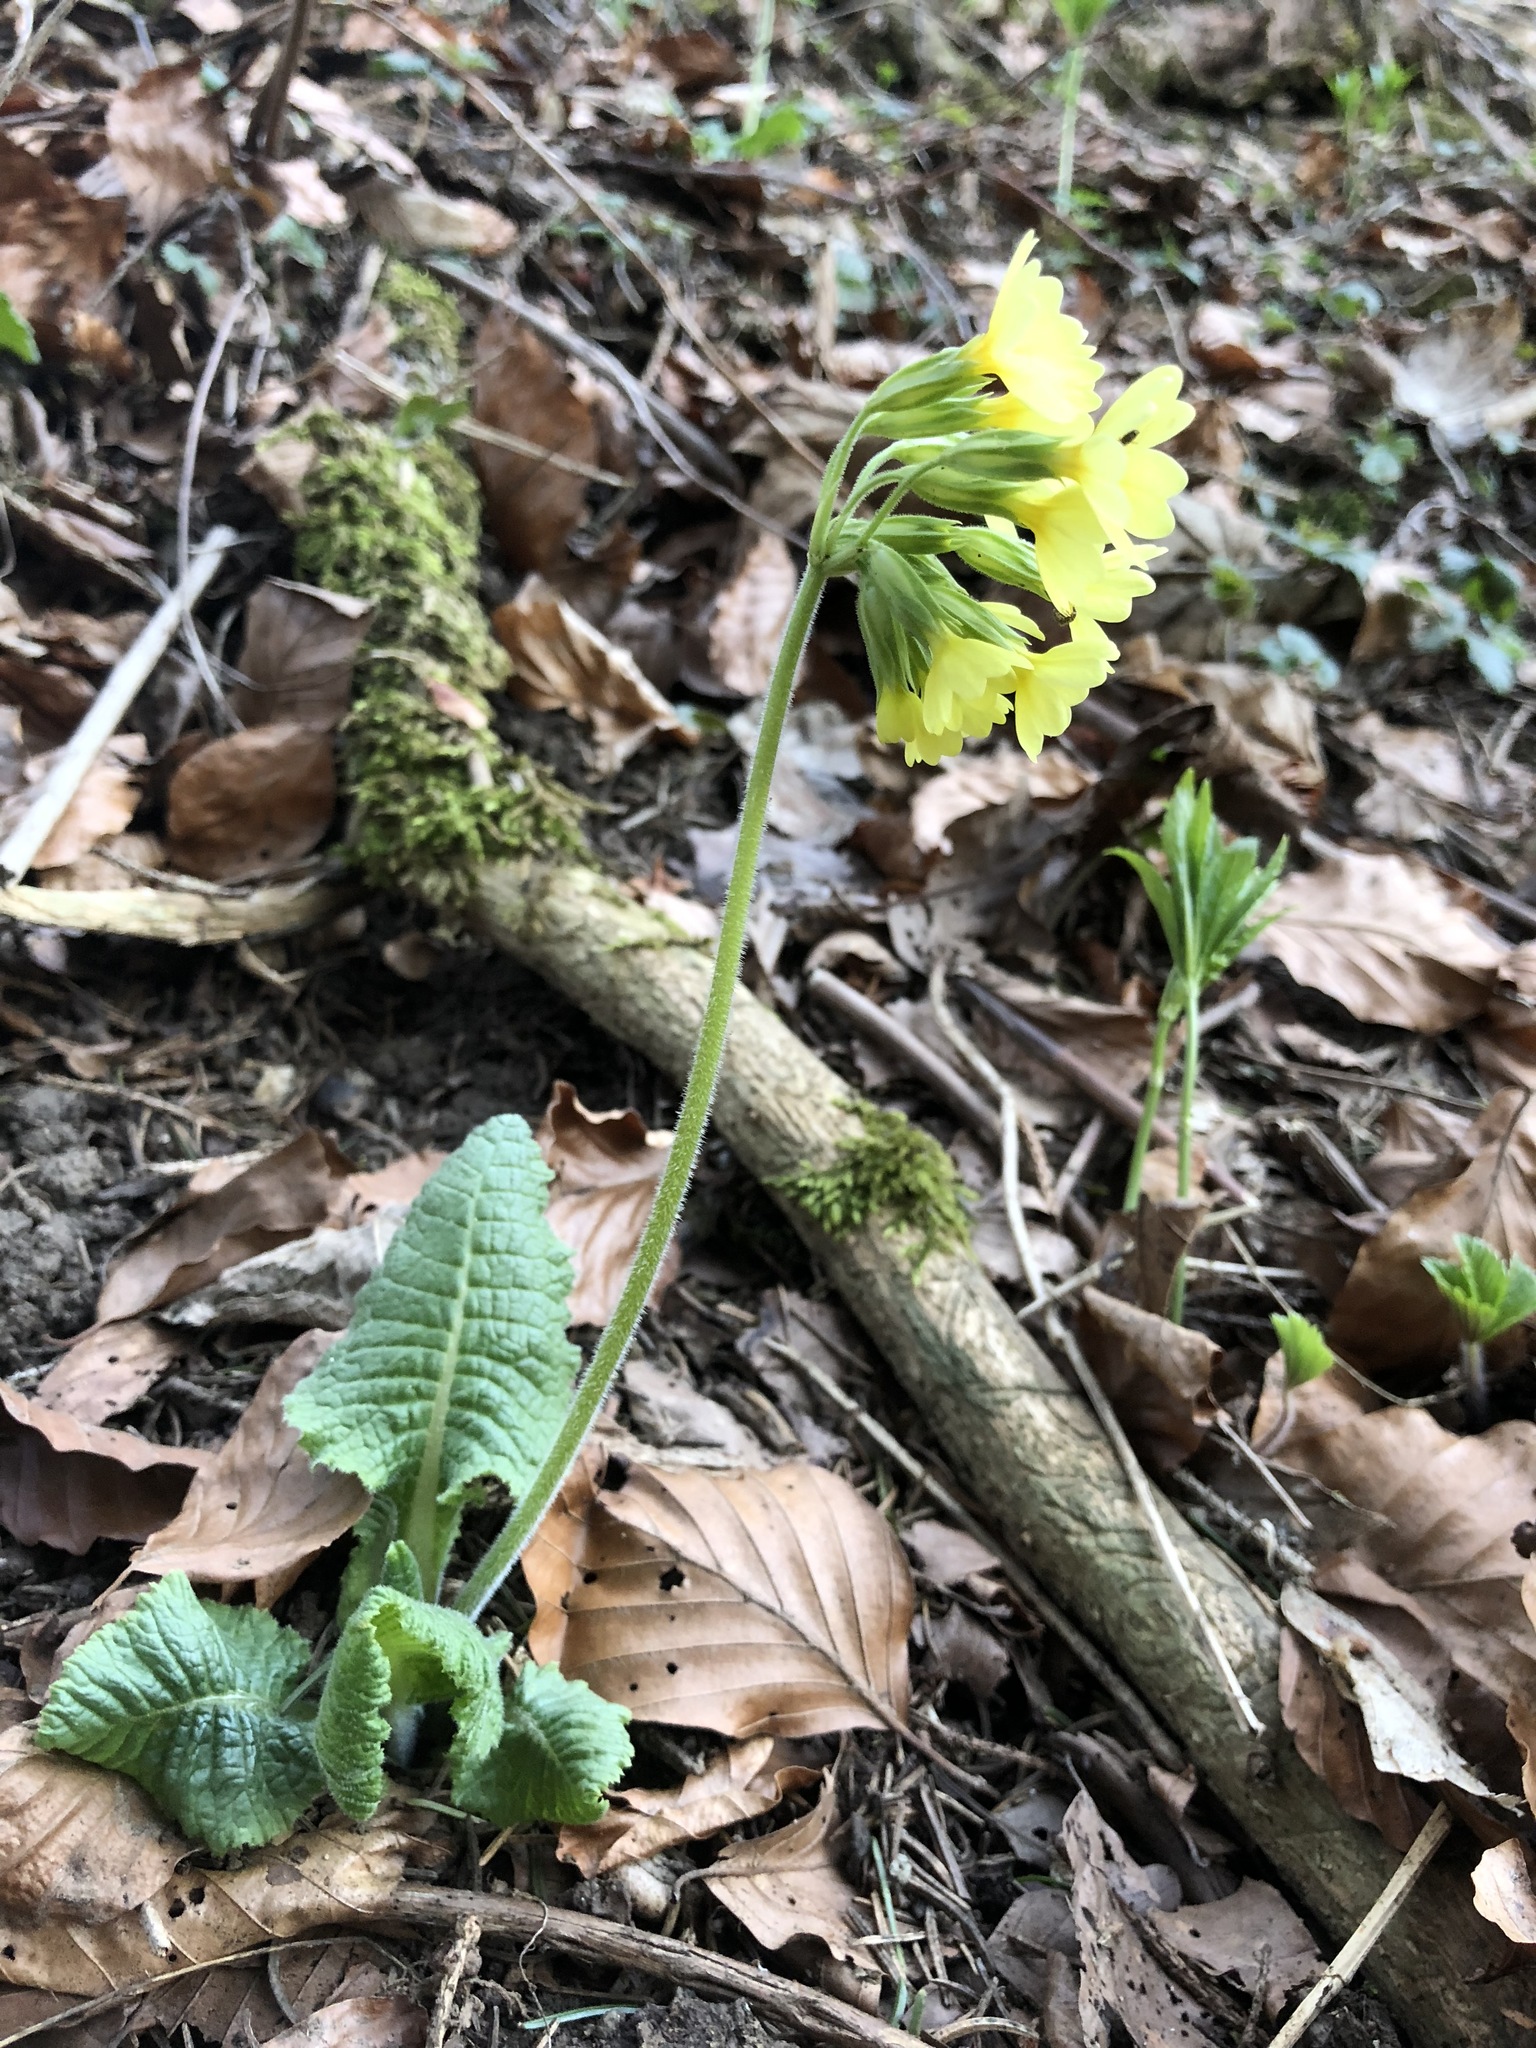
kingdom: Plantae
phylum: Tracheophyta
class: Magnoliopsida
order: Ericales
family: Primulaceae
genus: Primula
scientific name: Primula elatior
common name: Oxlip
